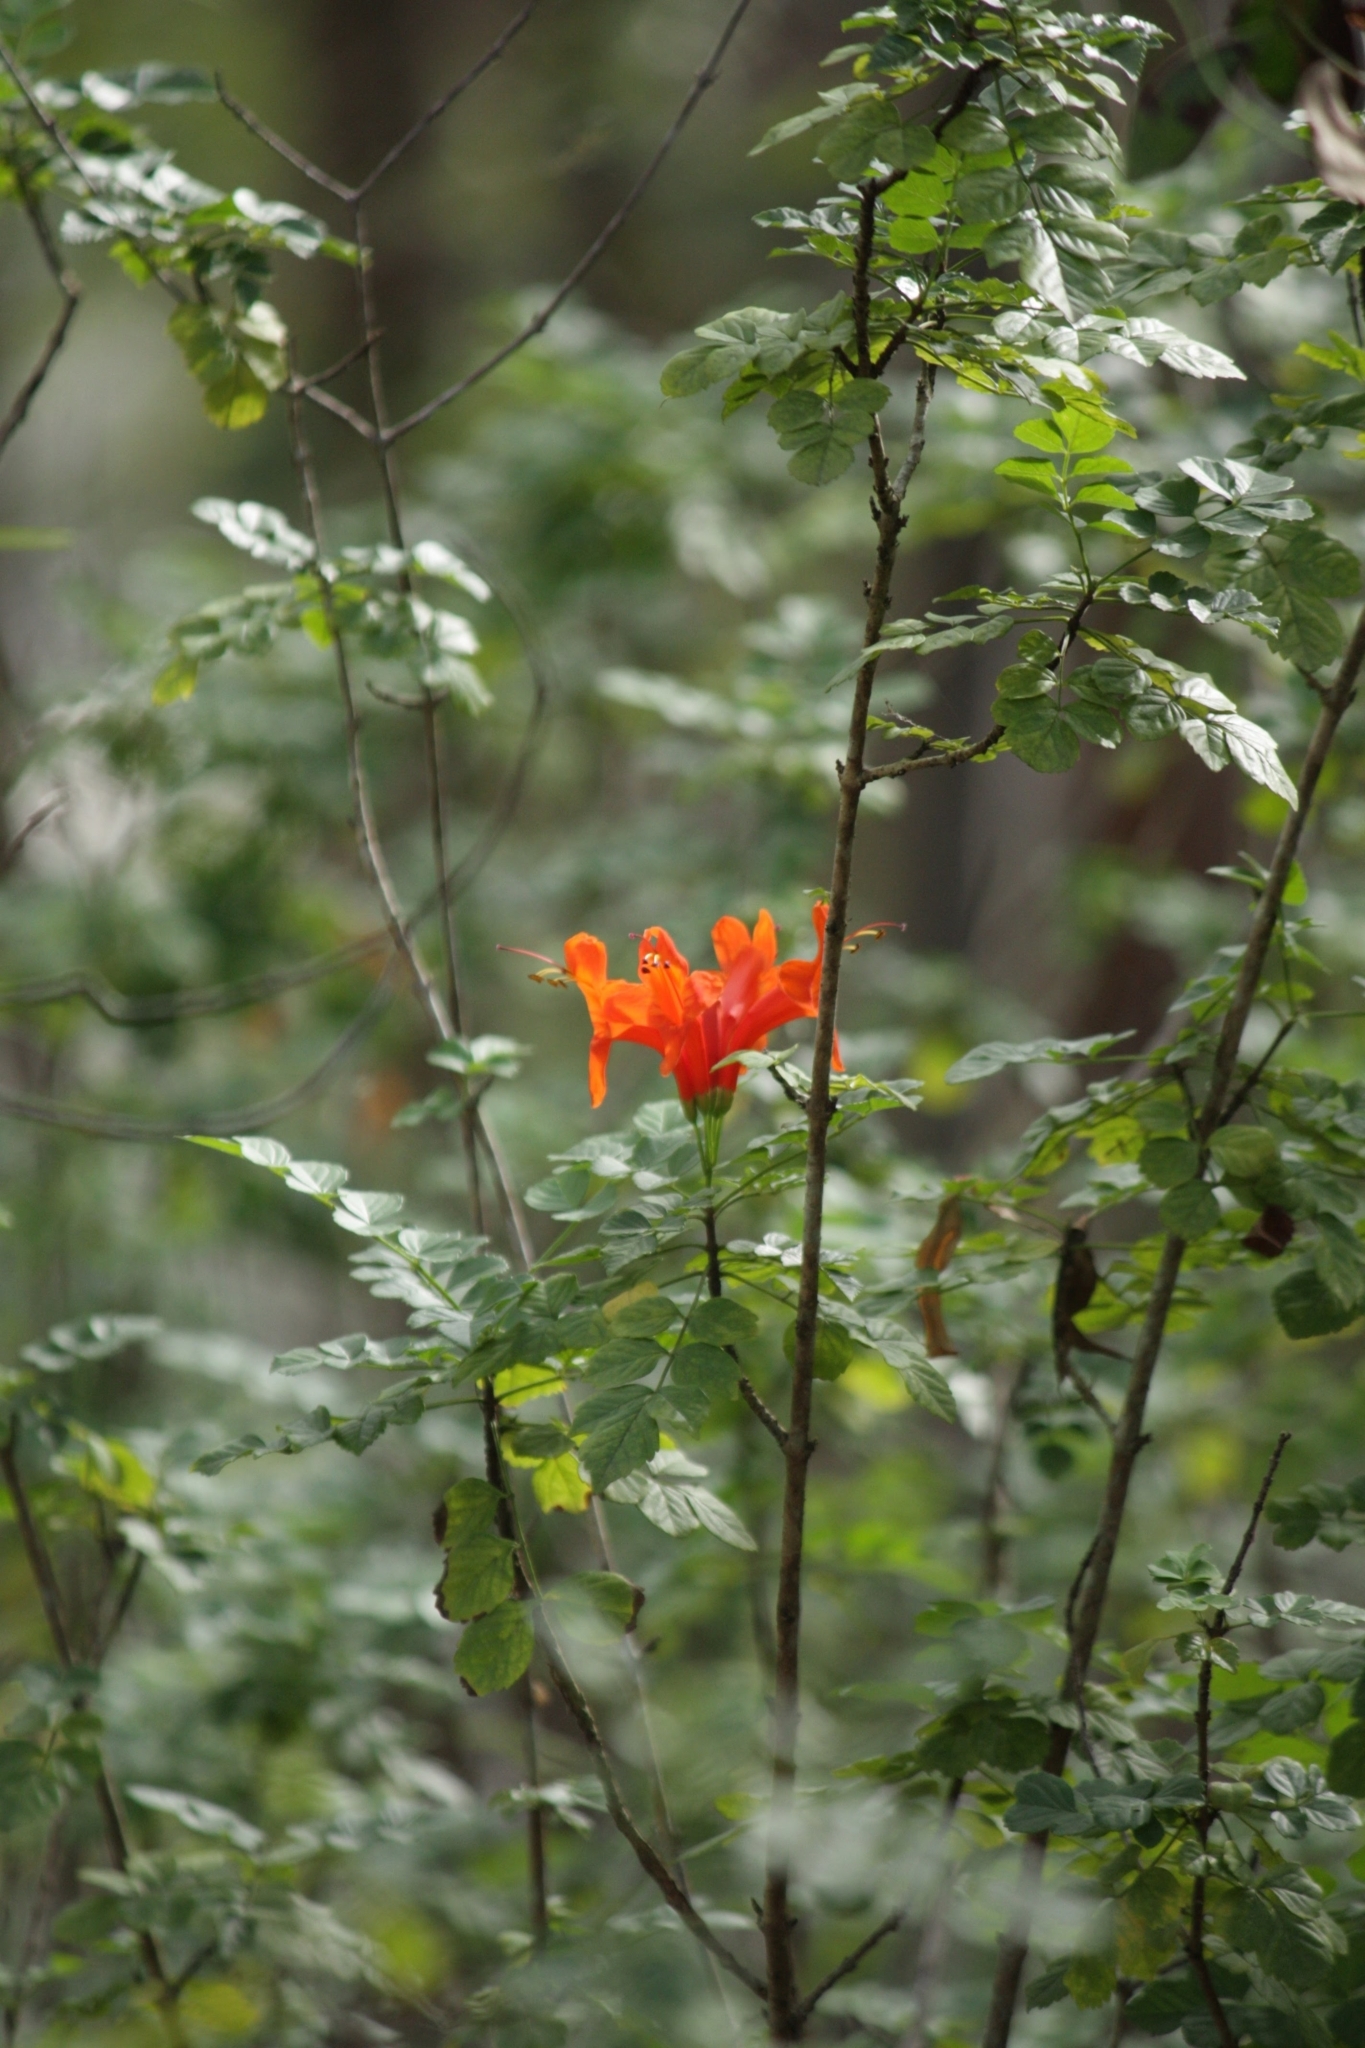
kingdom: Plantae
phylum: Tracheophyta
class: Magnoliopsida
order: Lamiales
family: Bignoniaceae
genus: Tecomaria
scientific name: Tecomaria capensis
